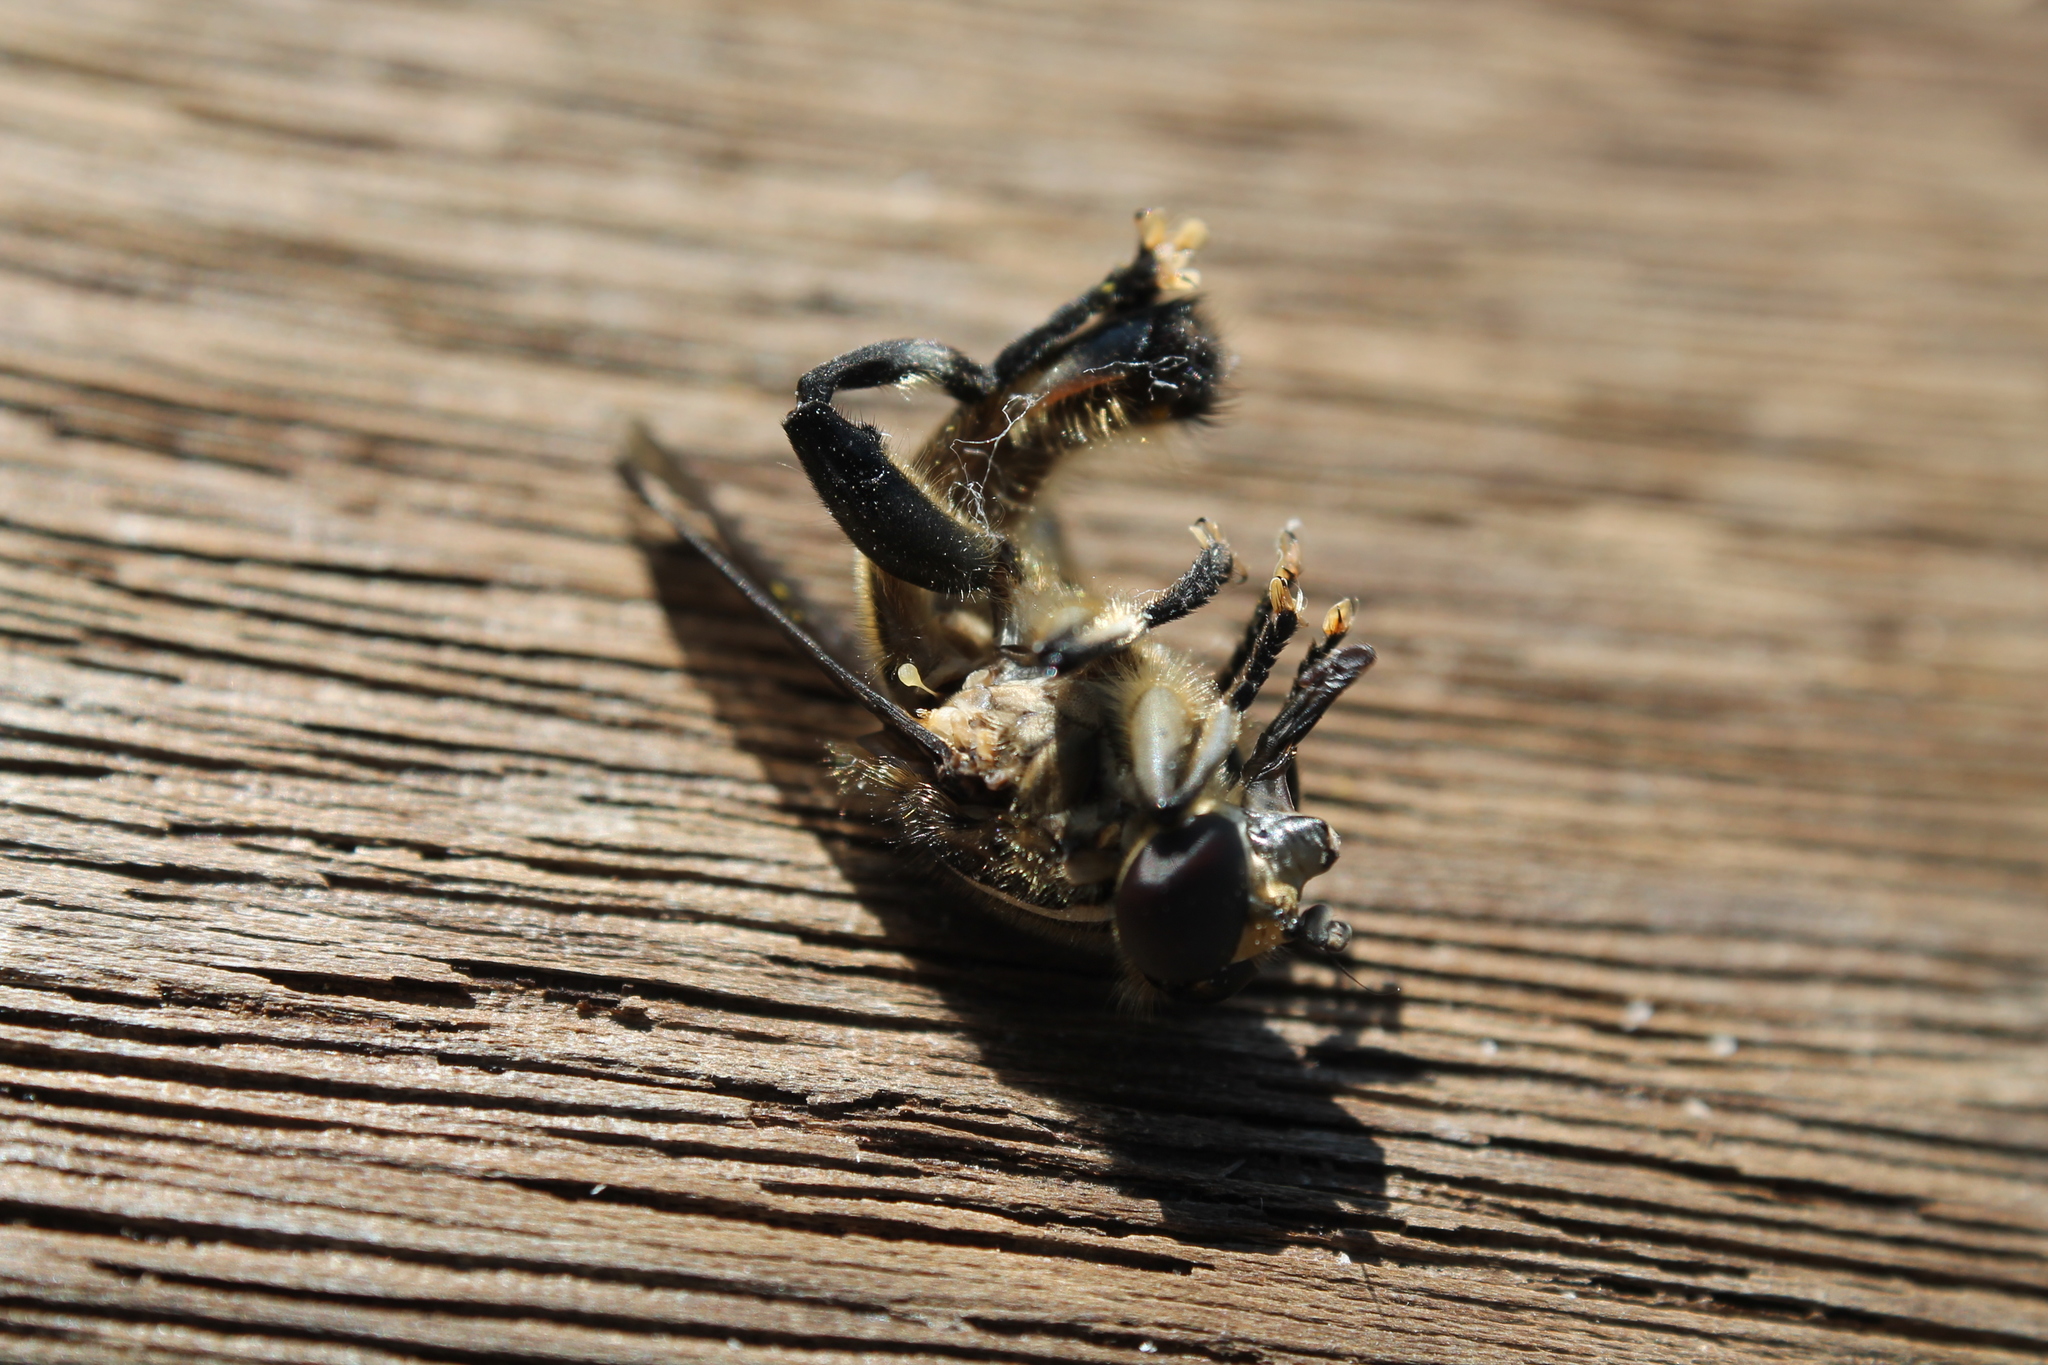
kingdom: Animalia
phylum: Arthropoda
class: Insecta
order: Diptera
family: Syrphidae
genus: Orthoprosopa
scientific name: Orthoprosopa bilineata
